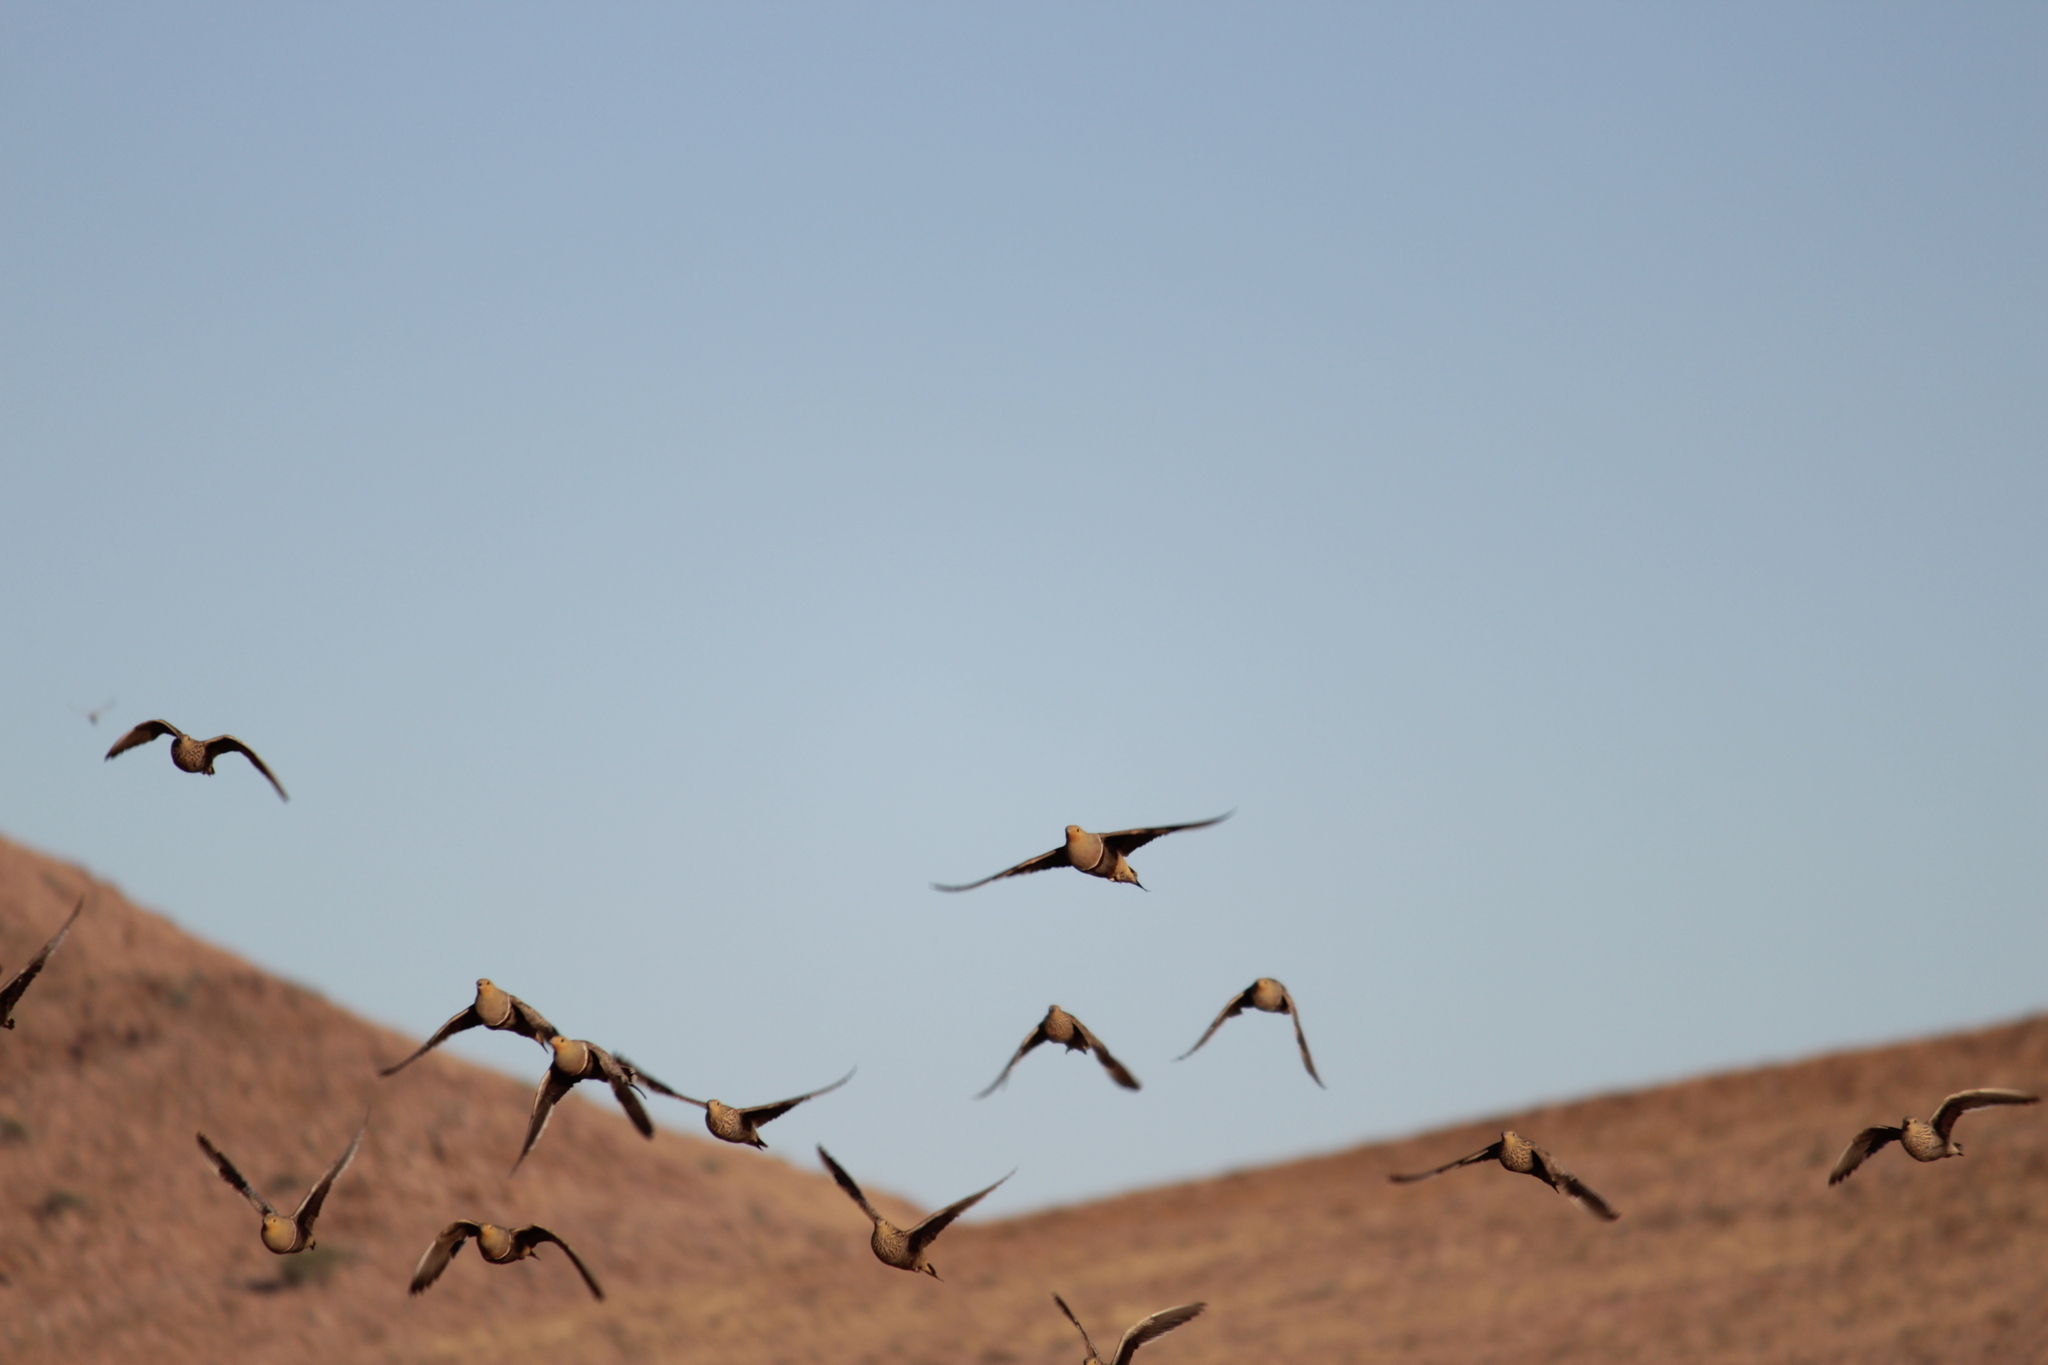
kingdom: Animalia
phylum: Chordata
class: Aves
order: Pteroclidiformes
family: Pteroclididae
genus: Pterocles
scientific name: Pterocles namaqua
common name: Namaqua sandgrouse
